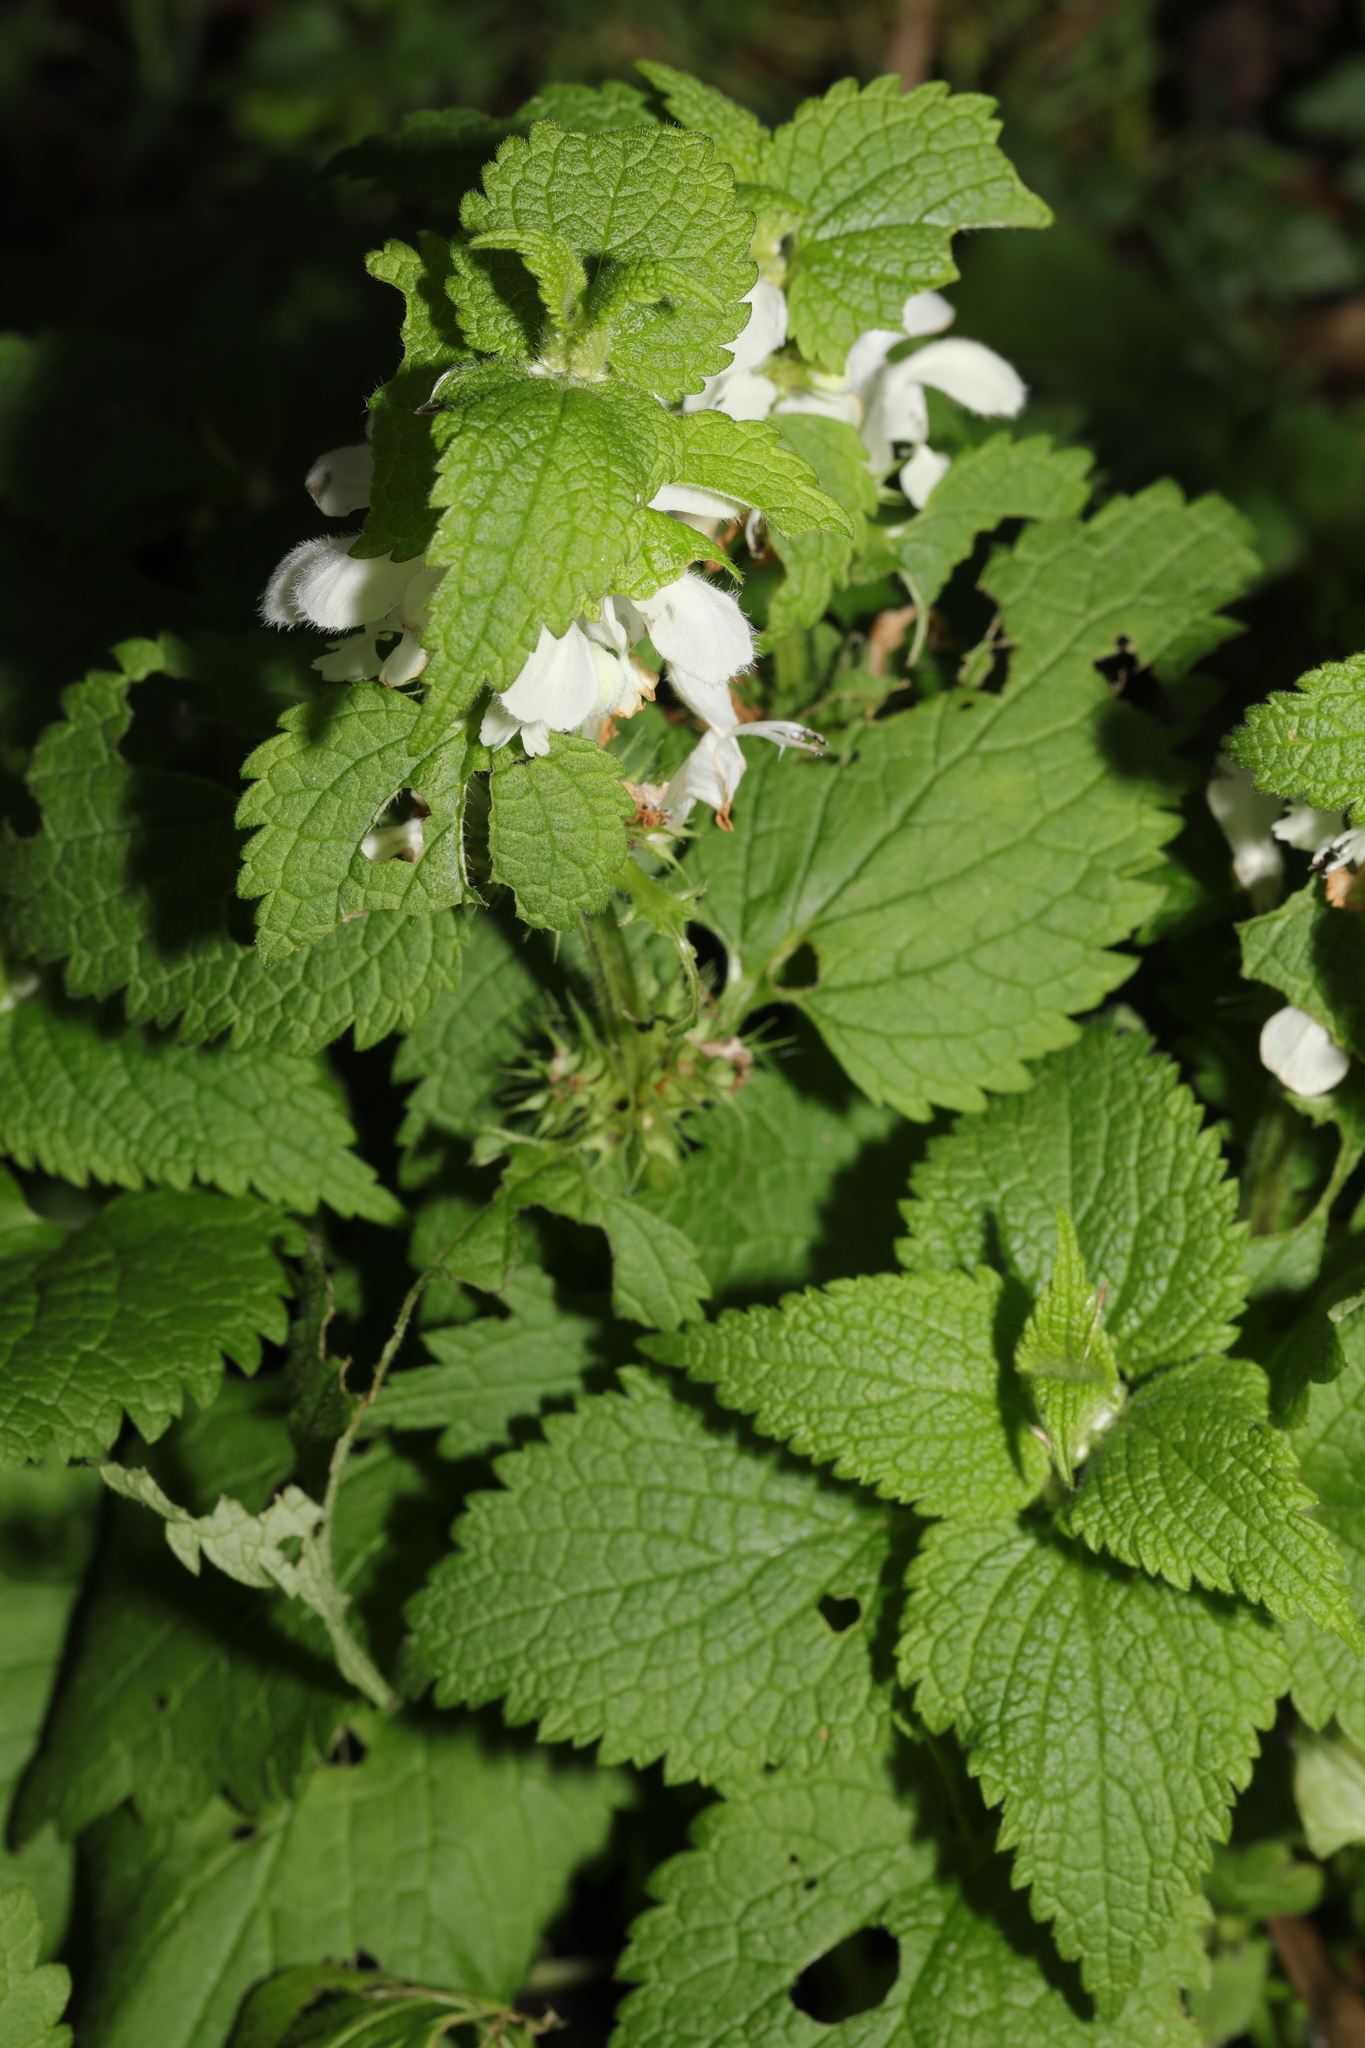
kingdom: Plantae
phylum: Tracheophyta
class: Magnoliopsida
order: Lamiales
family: Lamiaceae
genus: Lamium
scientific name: Lamium album
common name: White dead-nettle
